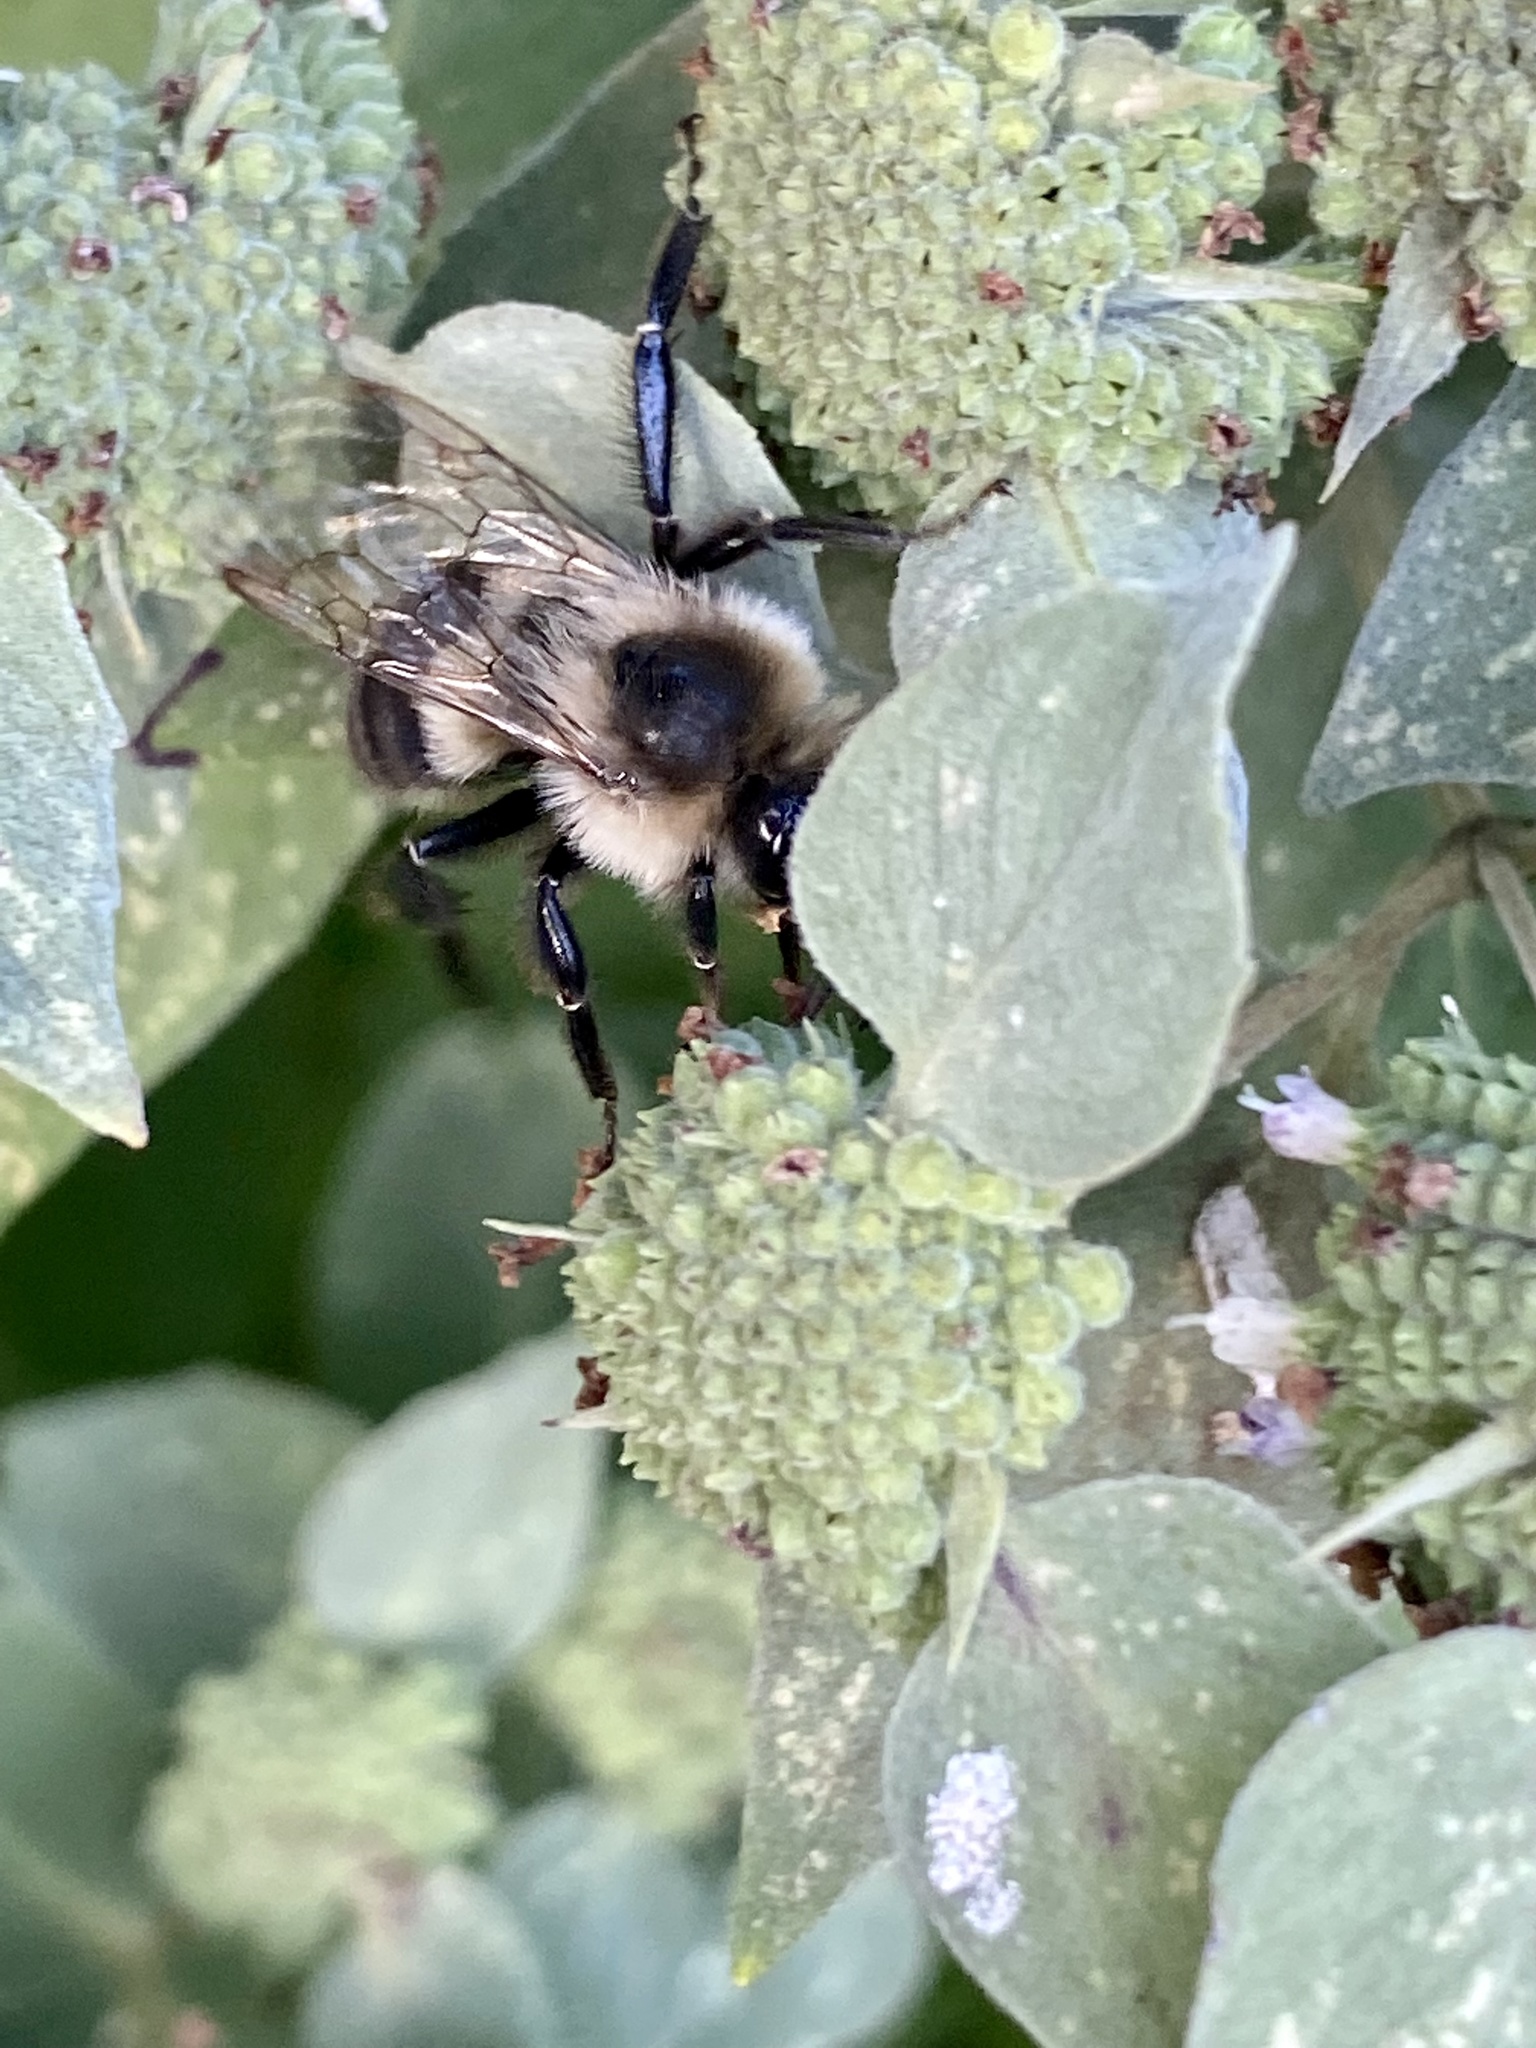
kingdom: Animalia
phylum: Arthropoda
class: Insecta
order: Hymenoptera
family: Apidae
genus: Bombus
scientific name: Bombus impatiens
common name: Common eastern bumble bee
